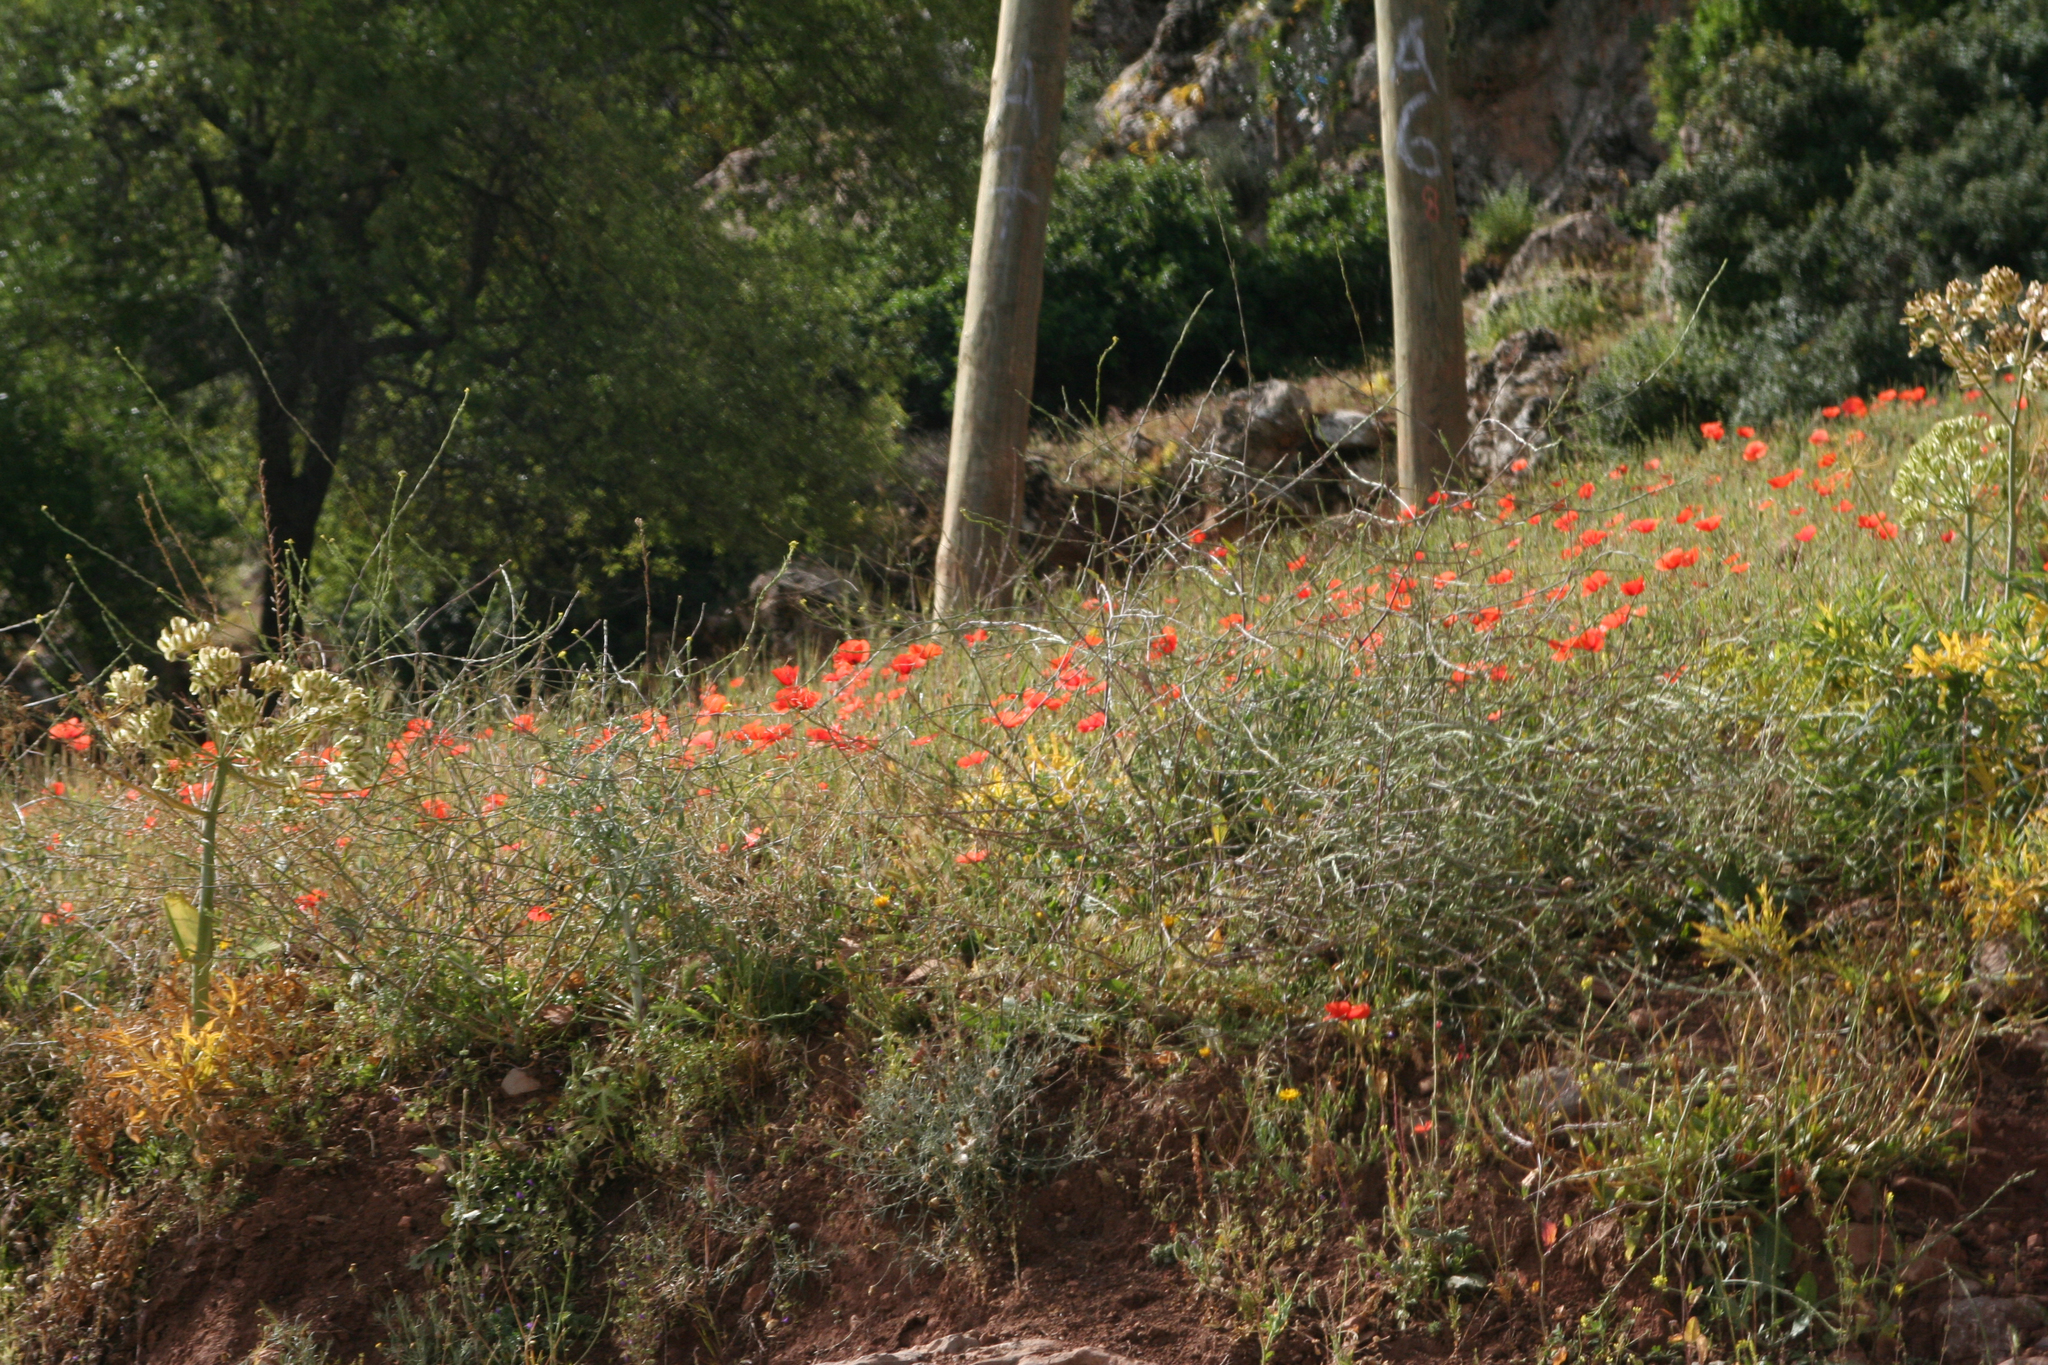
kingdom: Plantae
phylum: Tracheophyta
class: Magnoliopsida
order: Ranunculales
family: Papaveraceae
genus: Papaver
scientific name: Papaver rhoeas
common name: Corn poppy
